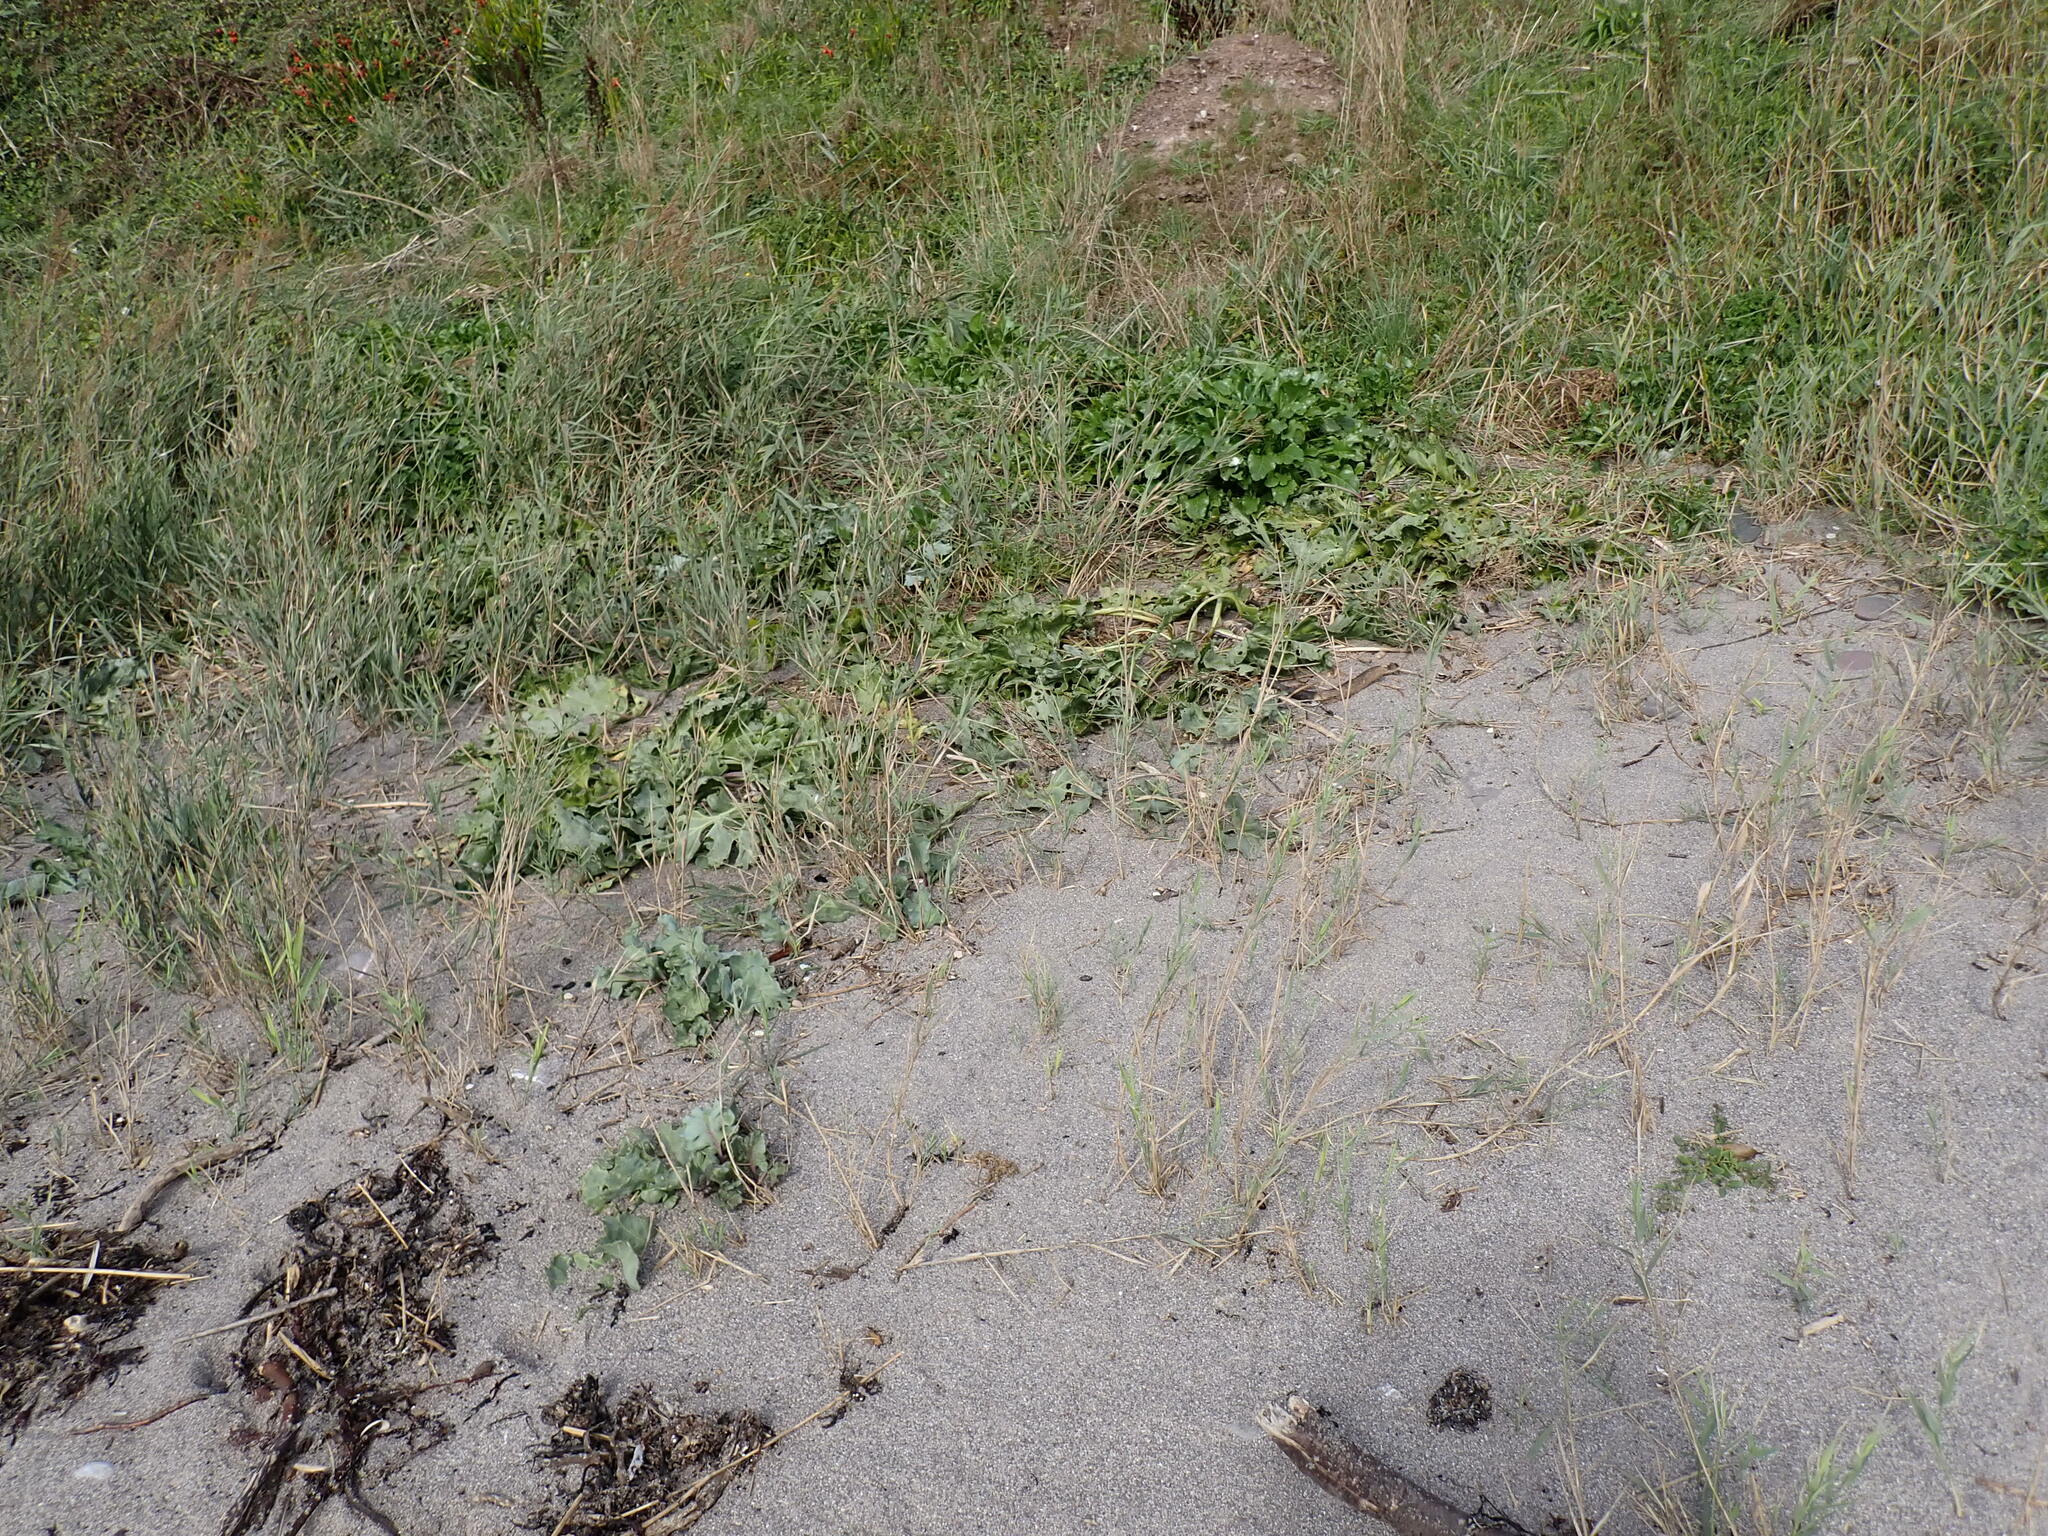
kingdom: Plantae
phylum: Tracheophyta
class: Magnoliopsida
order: Brassicales
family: Brassicaceae
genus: Crambe
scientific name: Crambe maritima
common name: Sea-kale
